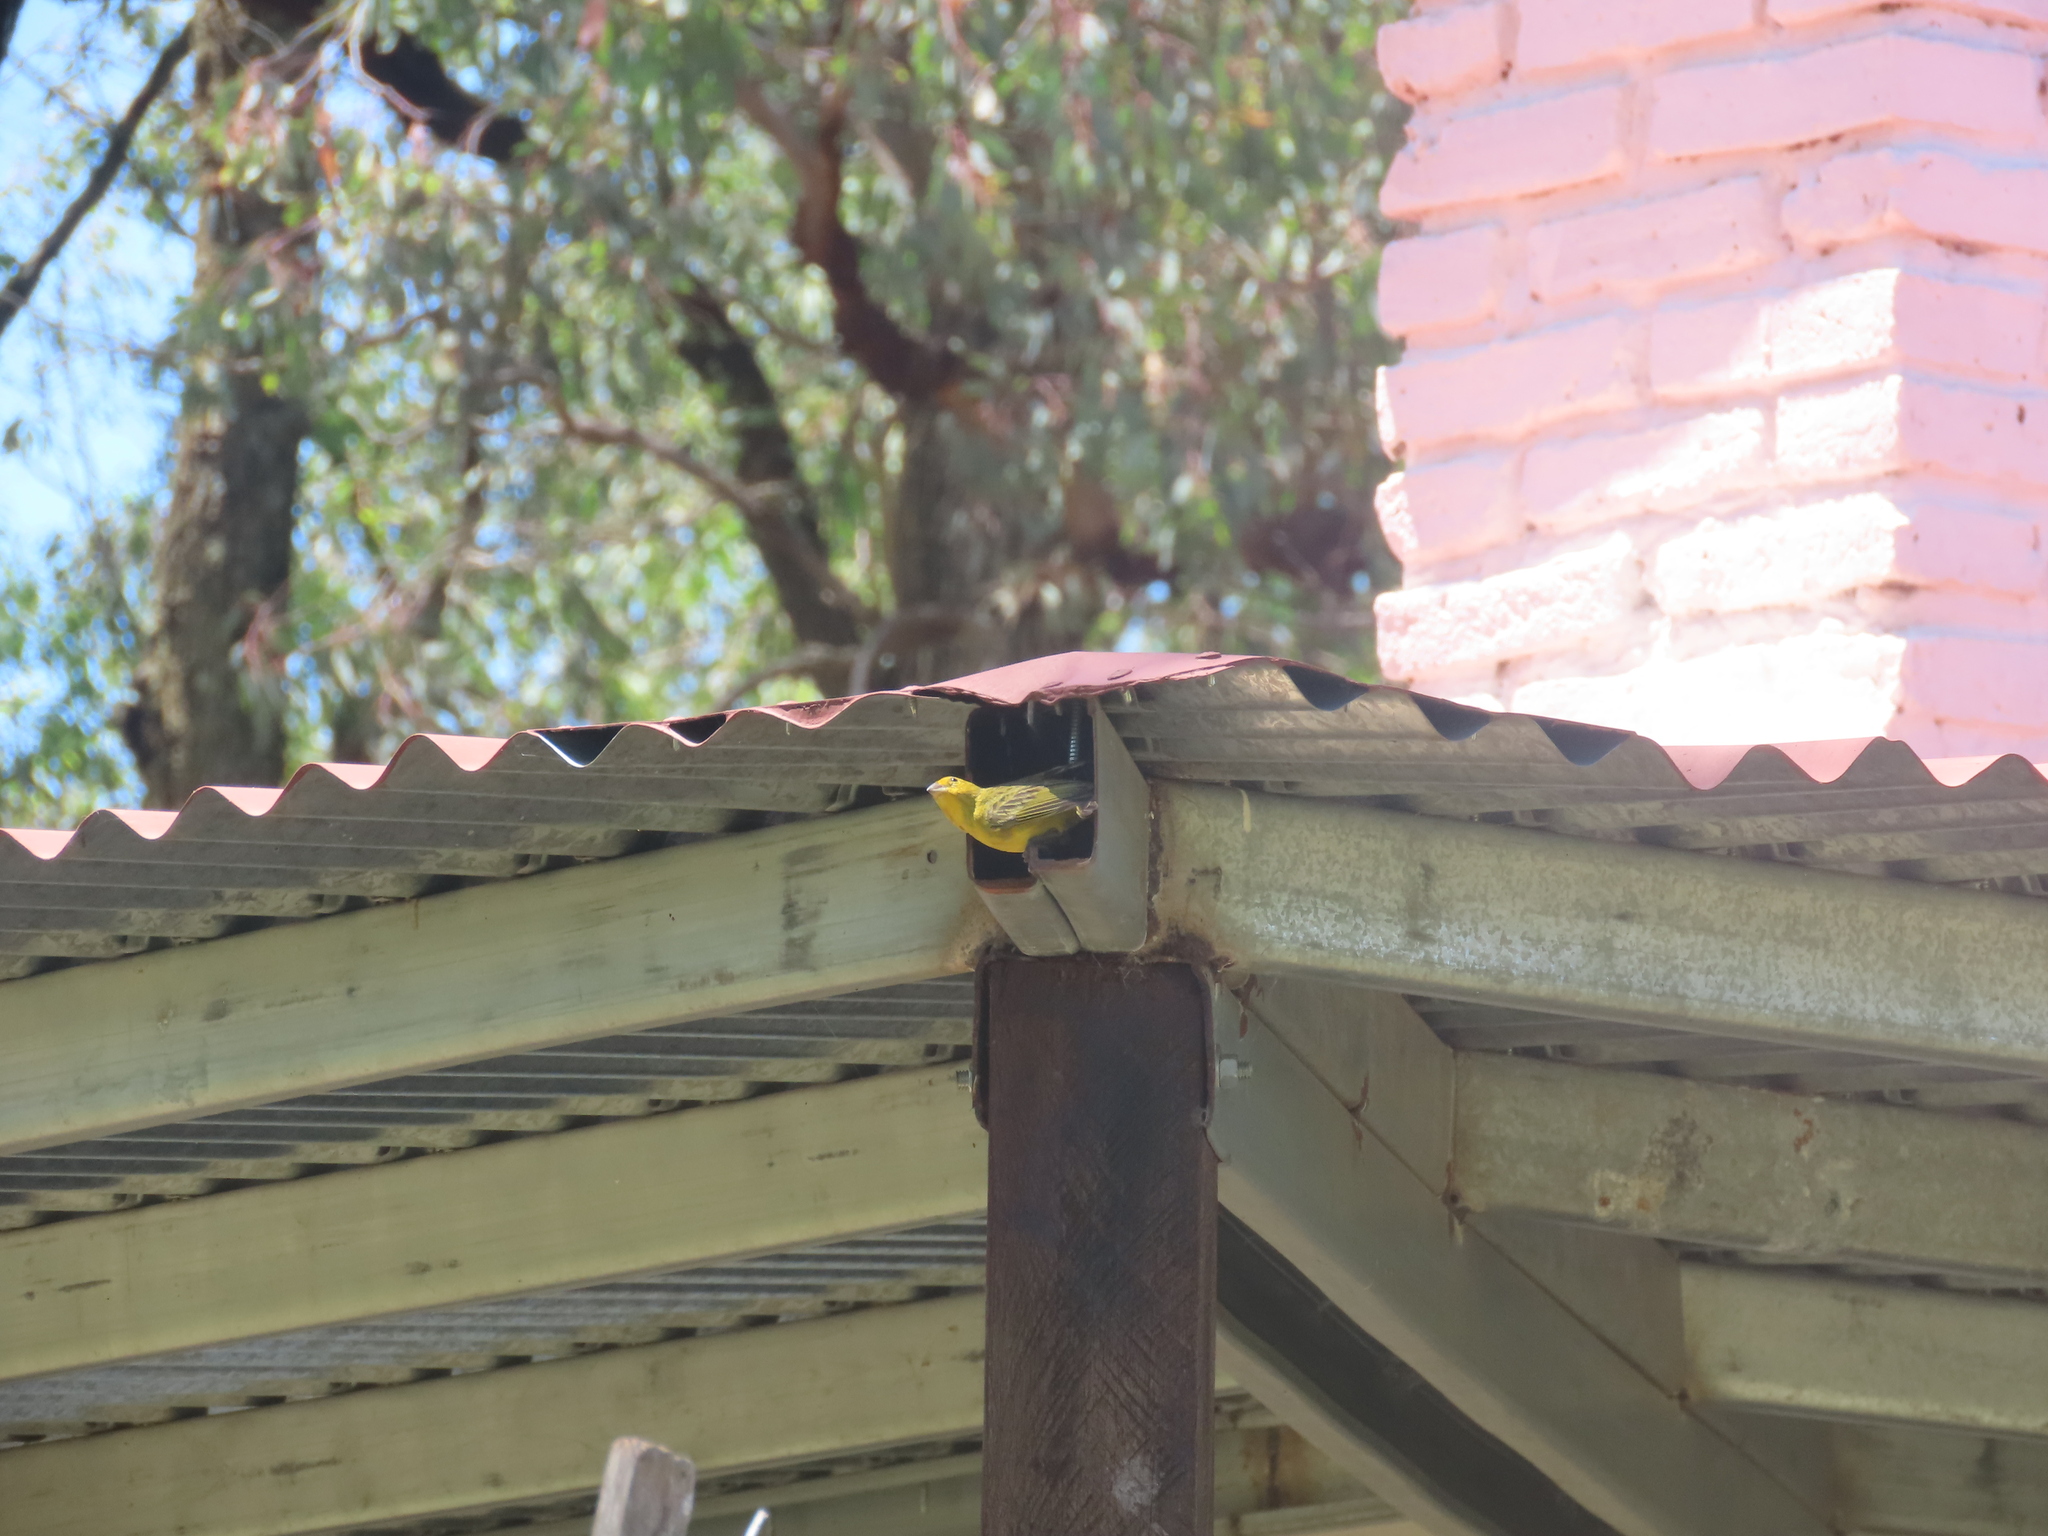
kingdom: Animalia
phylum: Chordata
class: Aves
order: Passeriformes
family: Thraupidae
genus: Sicalis
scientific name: Sicalis flaveola
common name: Saffron finch
